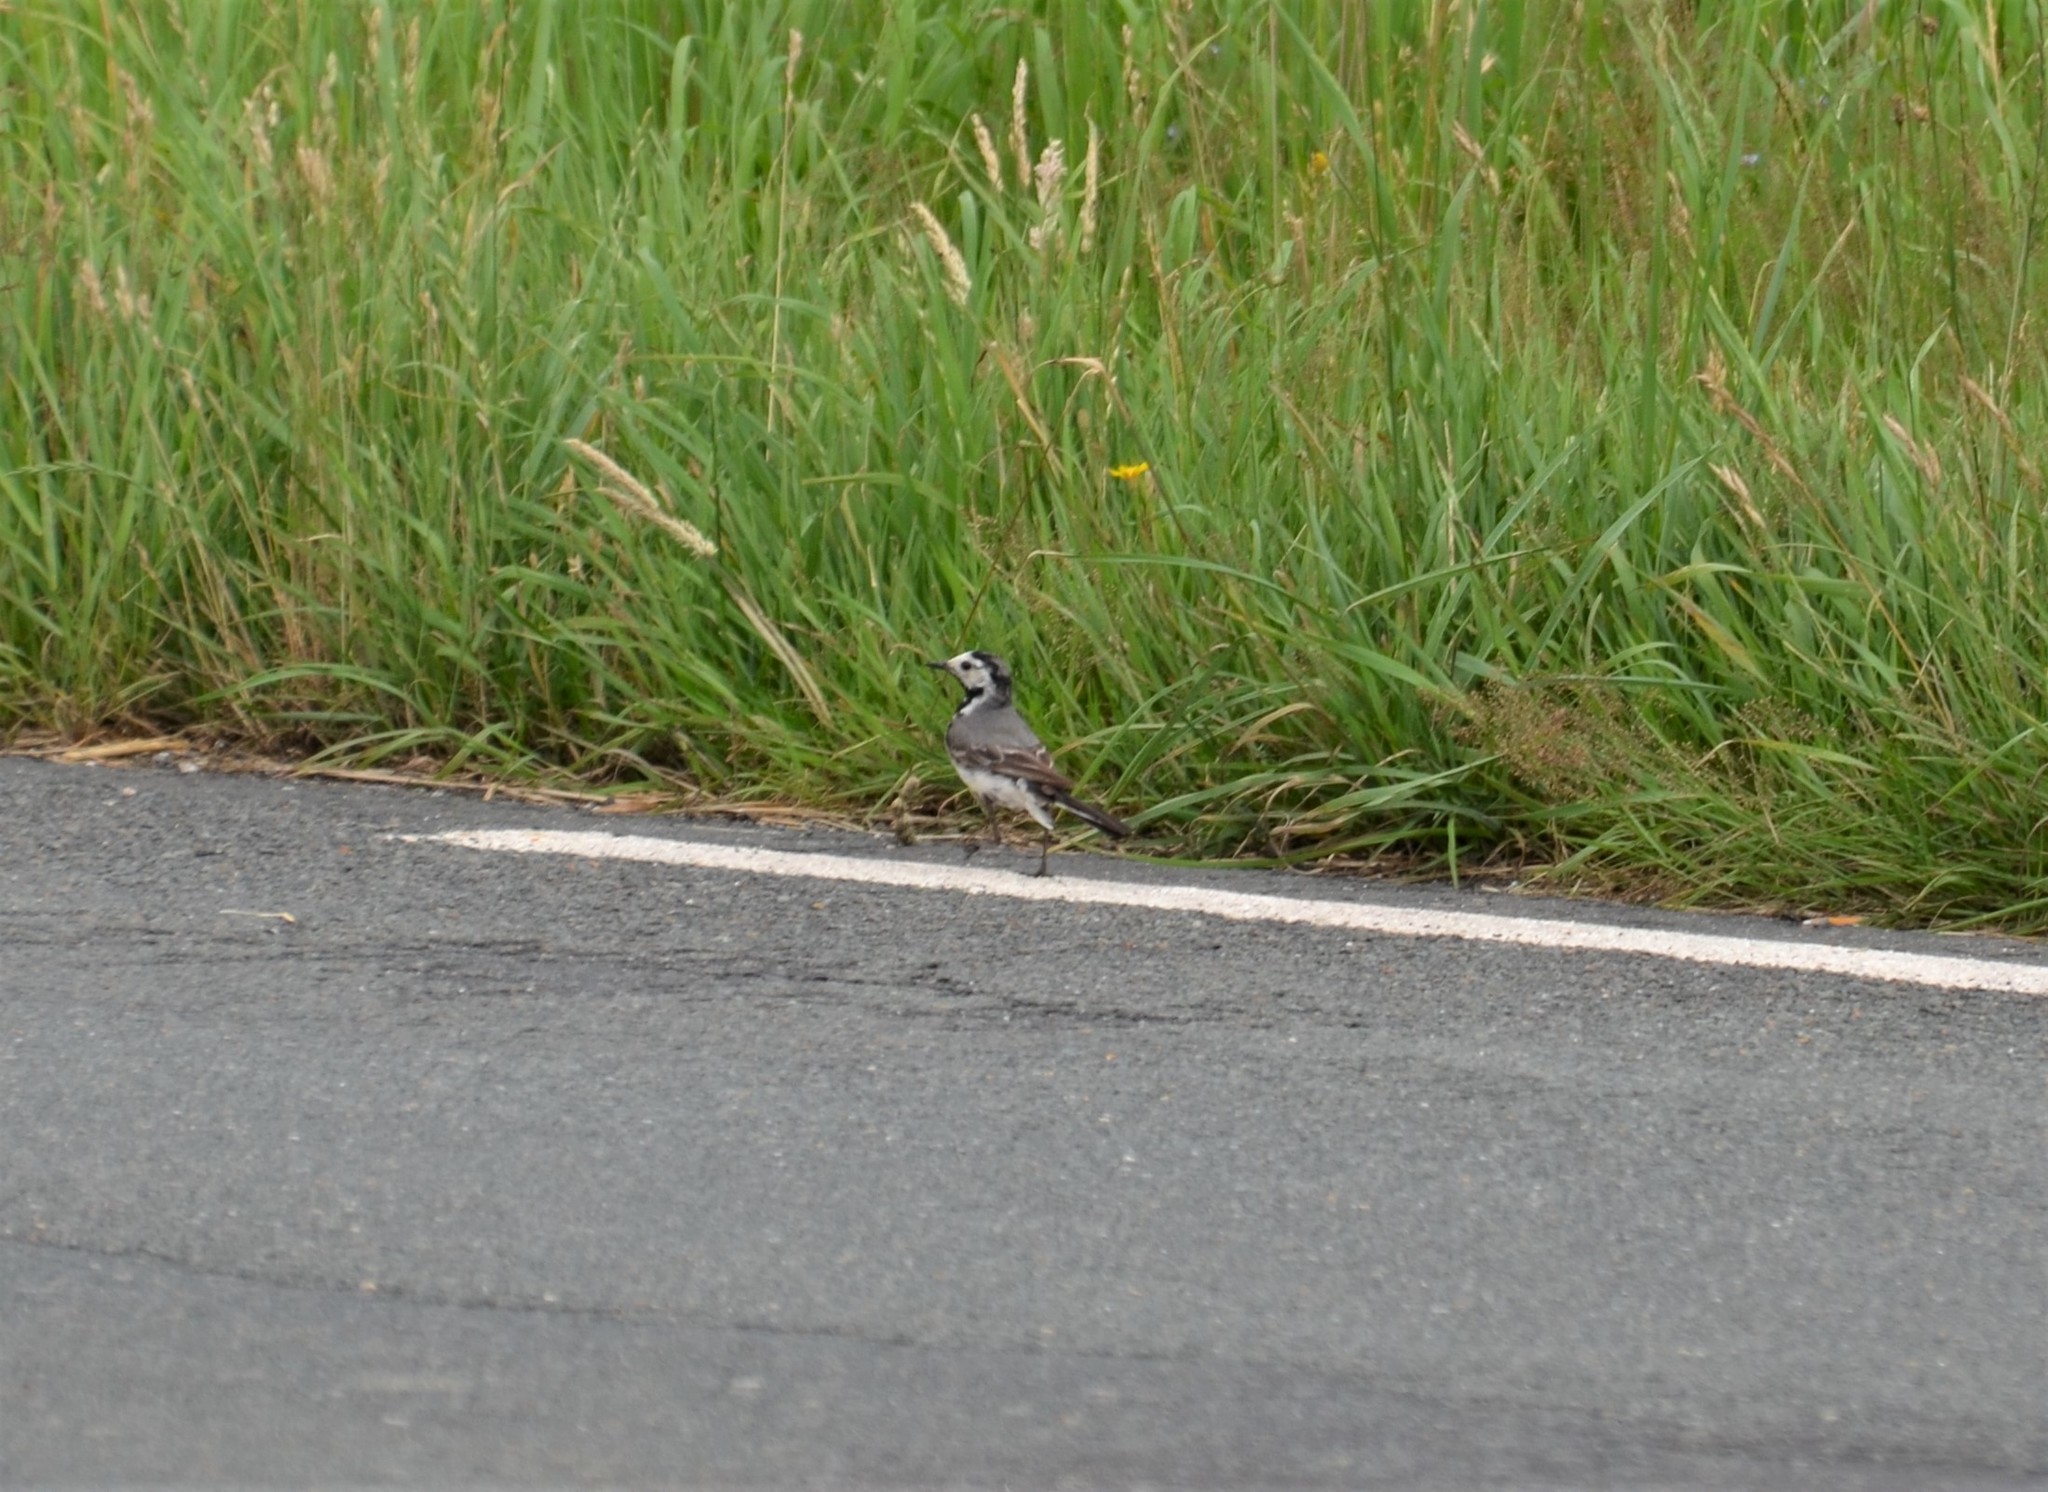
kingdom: Animalia
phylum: Chordata
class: Aves
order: Passeriformes
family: Motacillidae
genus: Motacilla
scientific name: Motacilla alba
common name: White wagtail
